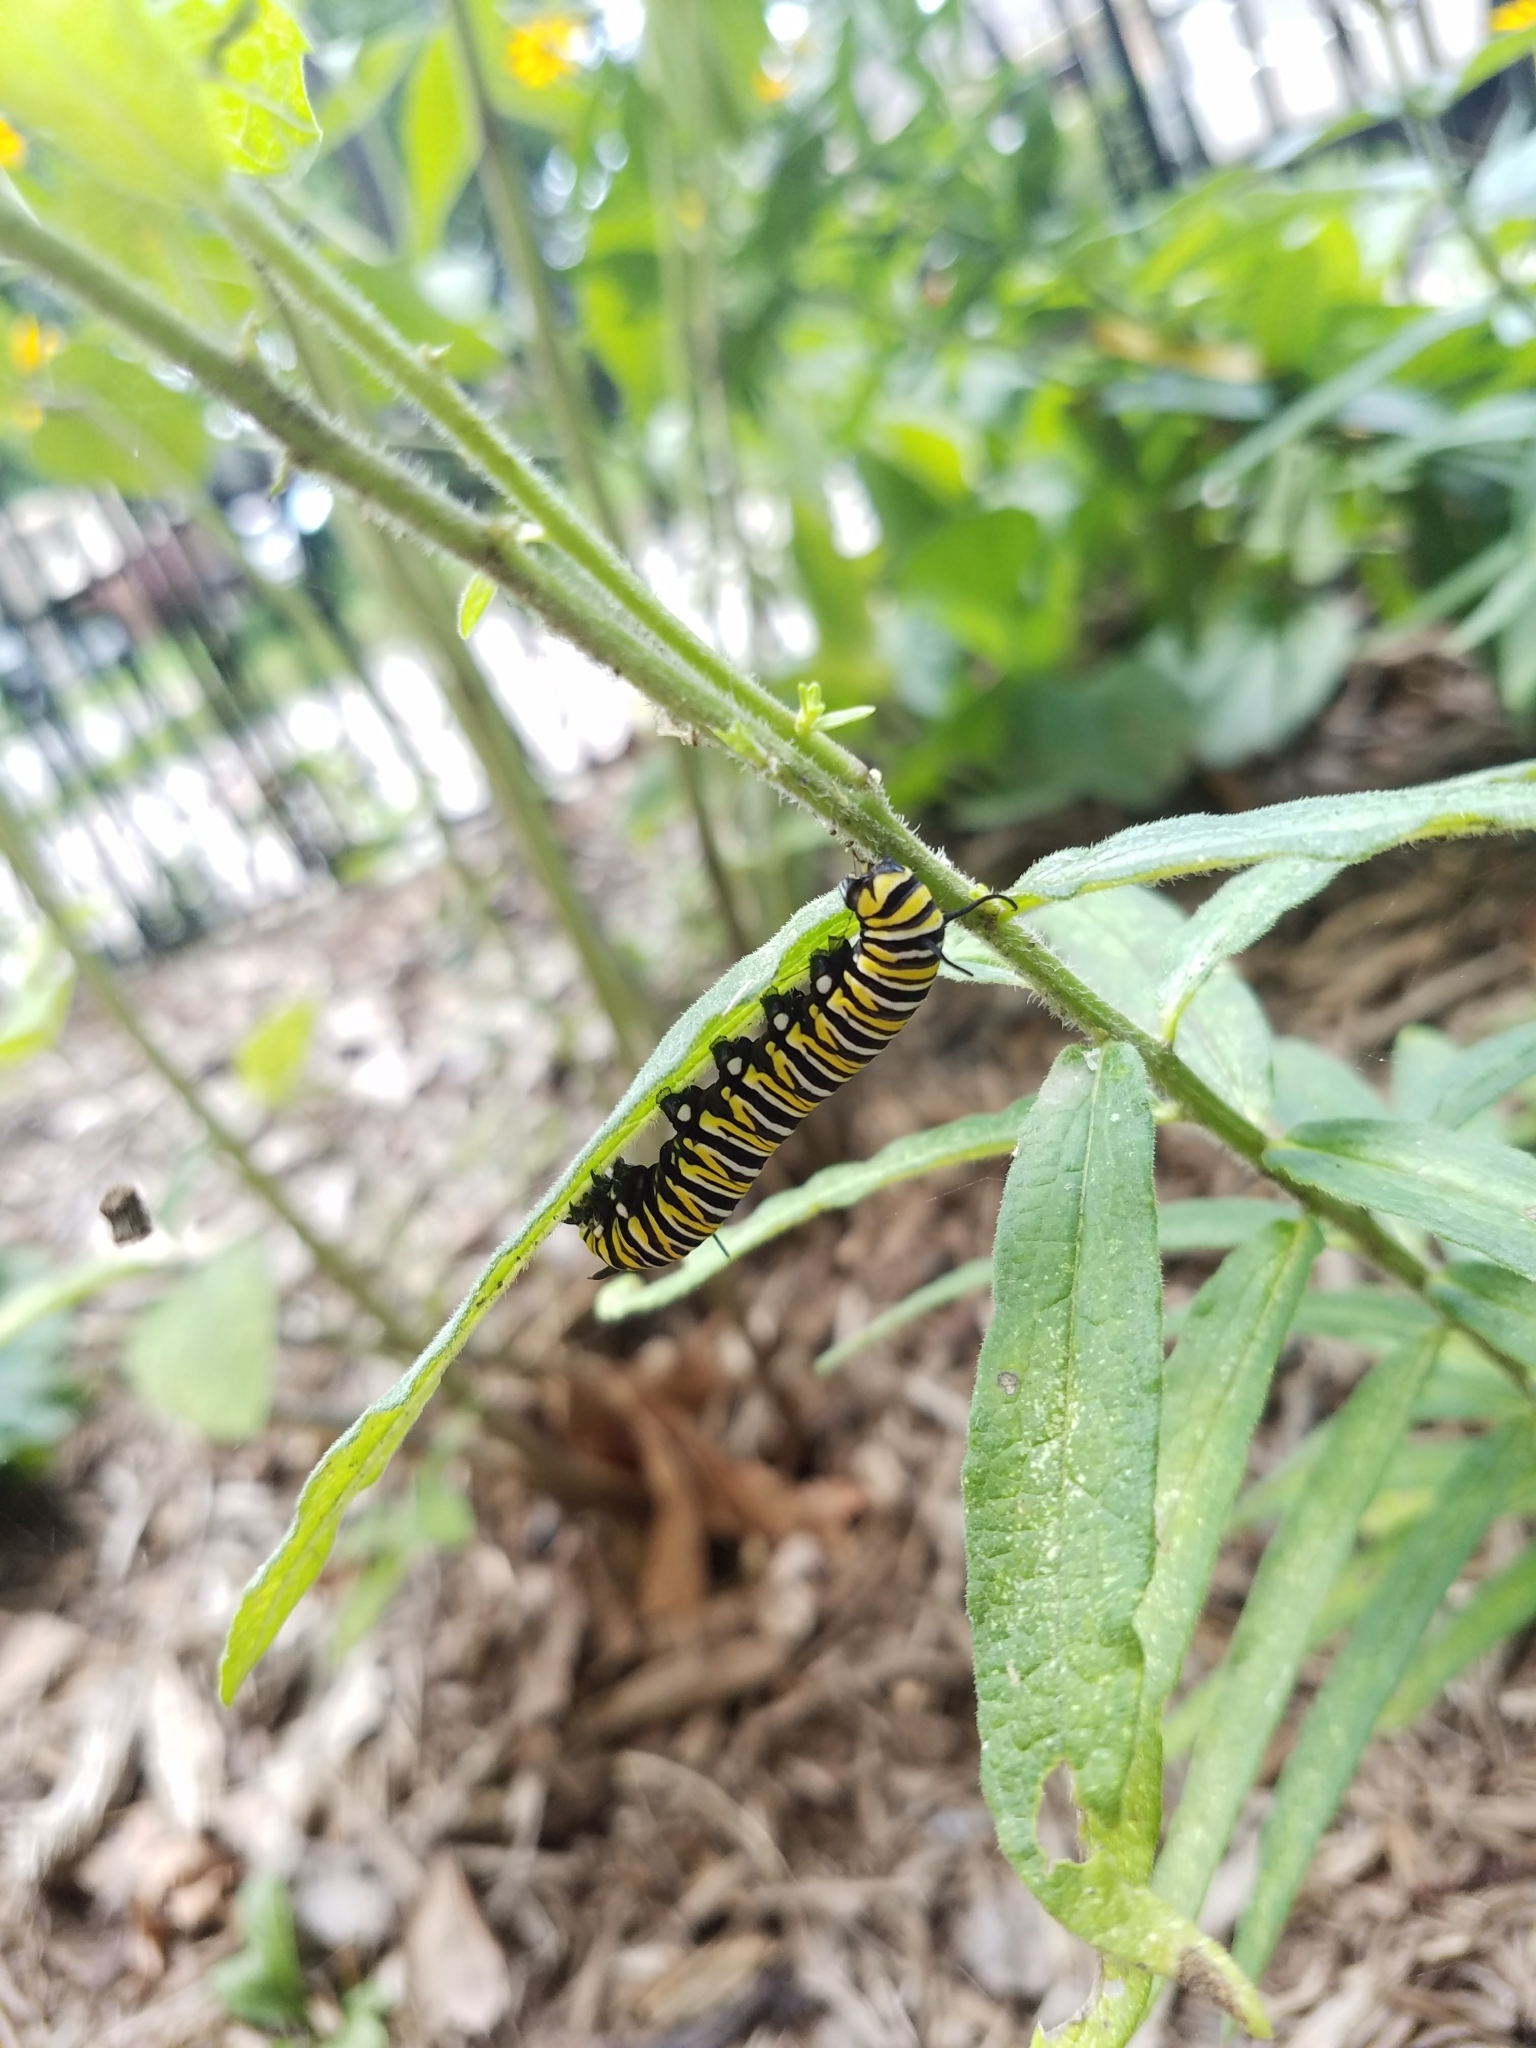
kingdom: Animalia
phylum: Arthropoda
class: Insecta
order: Lepidoptera
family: Nymphalidae
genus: Danaus
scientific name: Danaus plexippus
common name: Monarch
